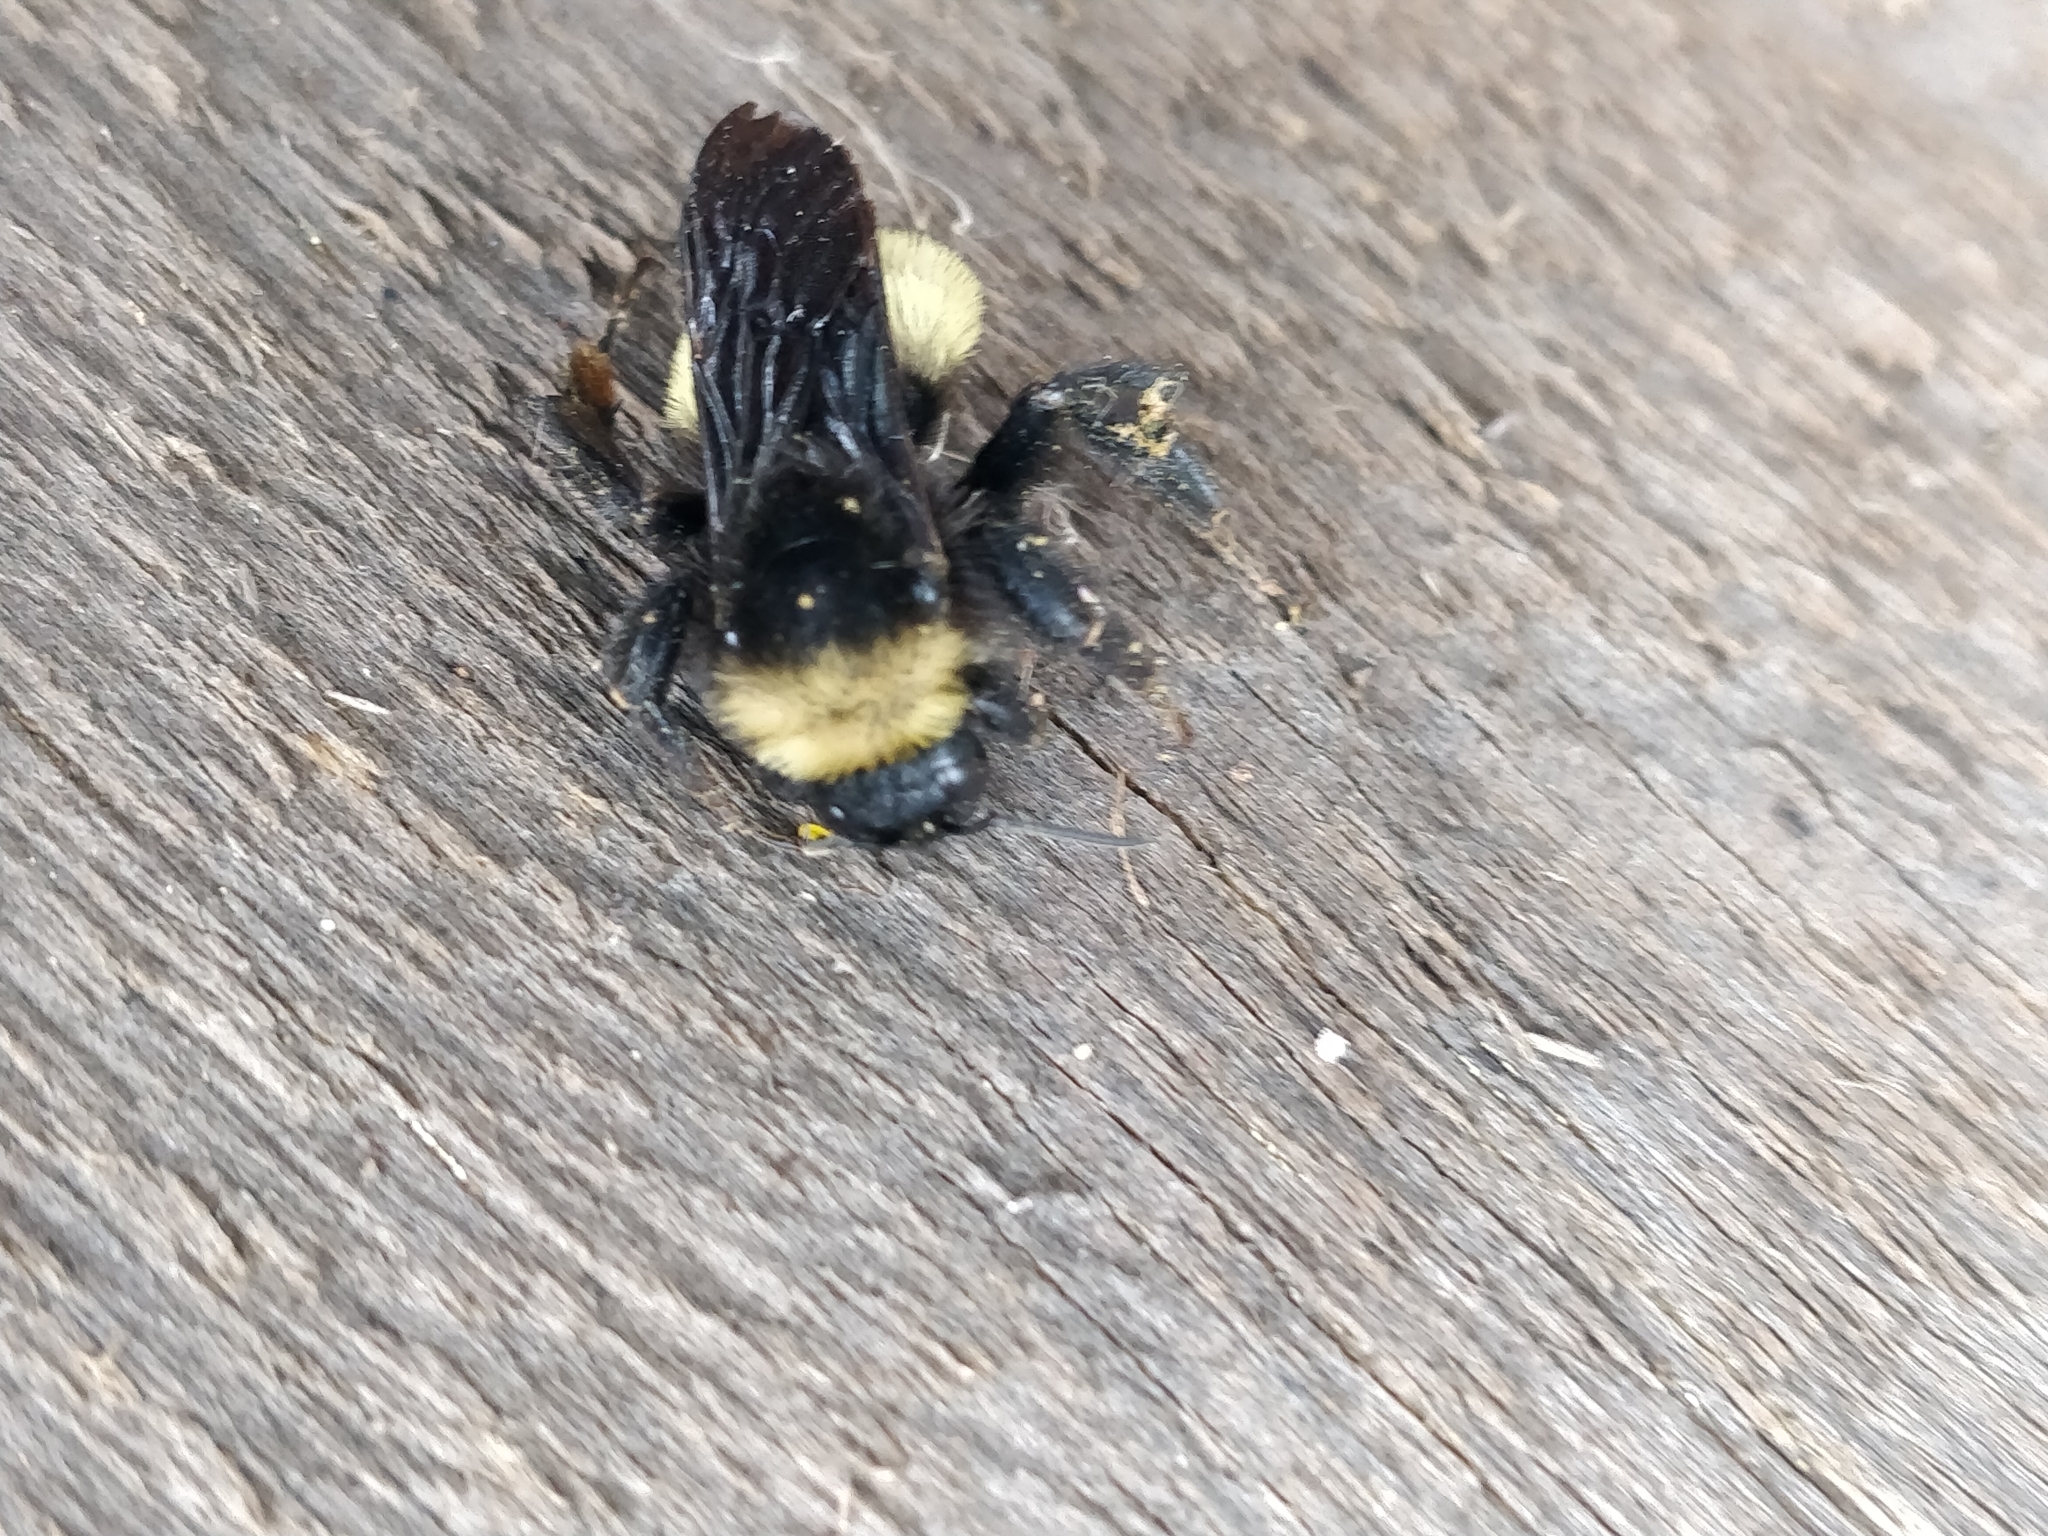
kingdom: Animalia
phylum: Arthropoda
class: Insecta
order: Hymenoptera
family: Apidae
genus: Bombus
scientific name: Bombus pensylvanicus
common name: Bumble bee
